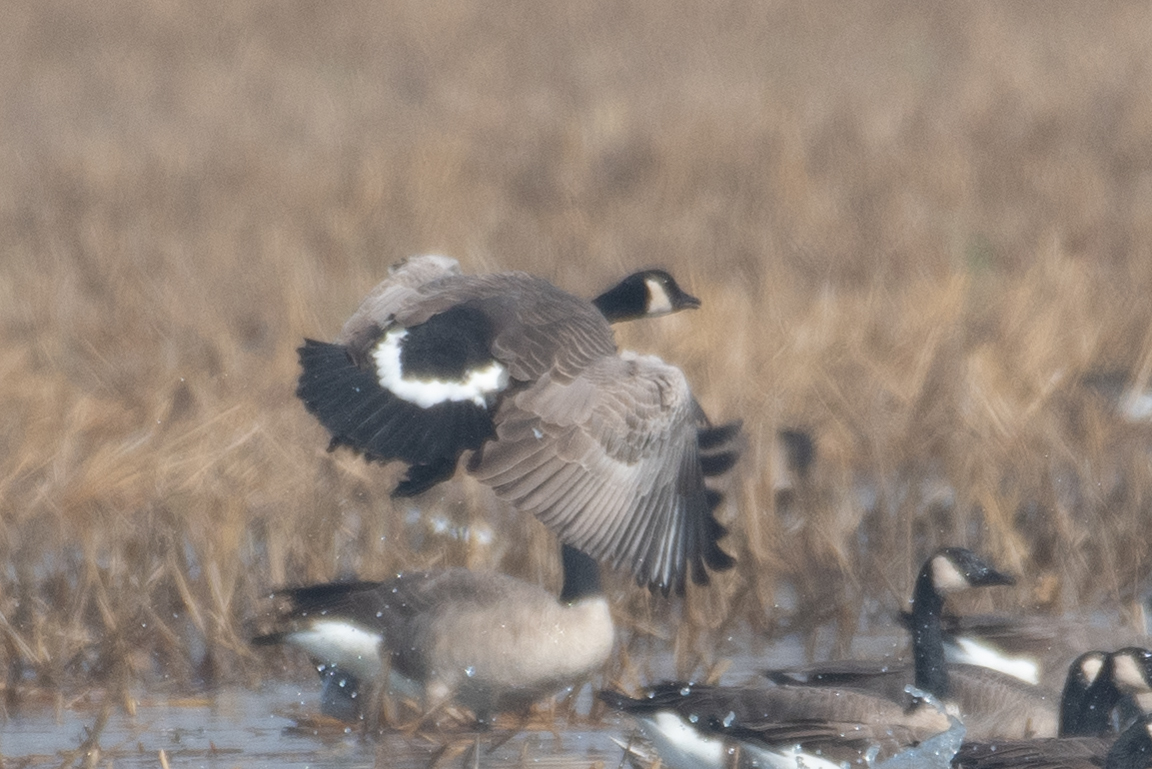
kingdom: Animalia
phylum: Chordata
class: Aves
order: Anseriformes
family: Anatidae
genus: Branta
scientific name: Branta canadensis
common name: Canada goose
